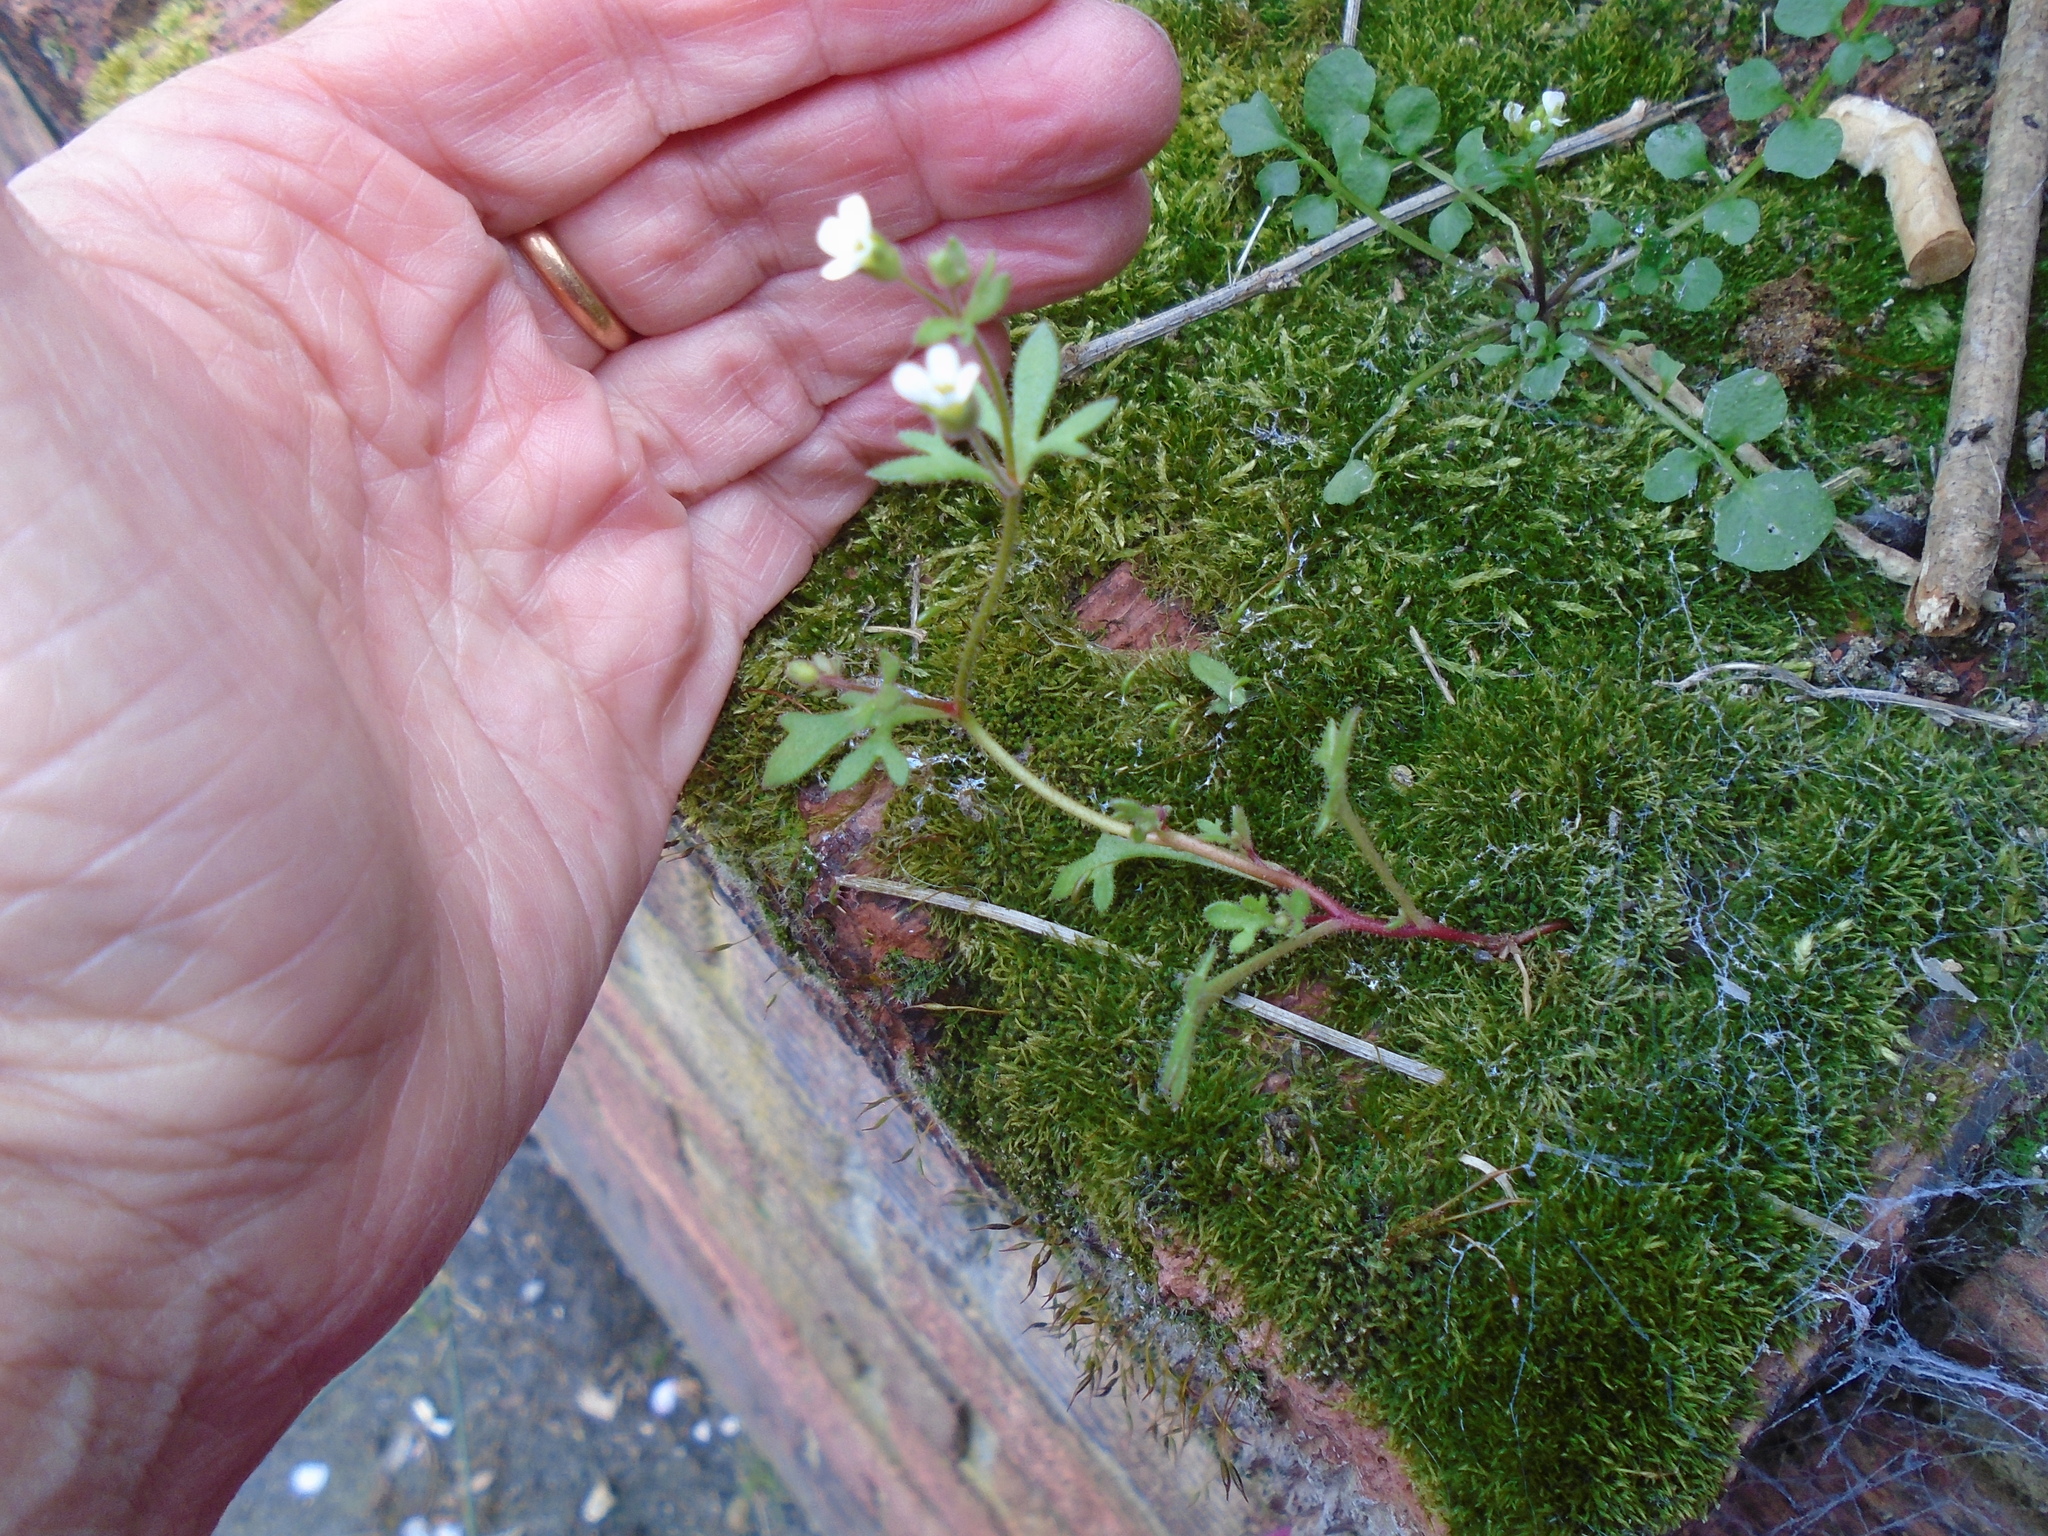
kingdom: Plantae
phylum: Tracheophyta
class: Magnoliopsida
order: Saxifragales
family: Saxifragaceae
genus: Saxifraga
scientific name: Saxifraga tridactylites
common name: Rue-leaved saxifrage
